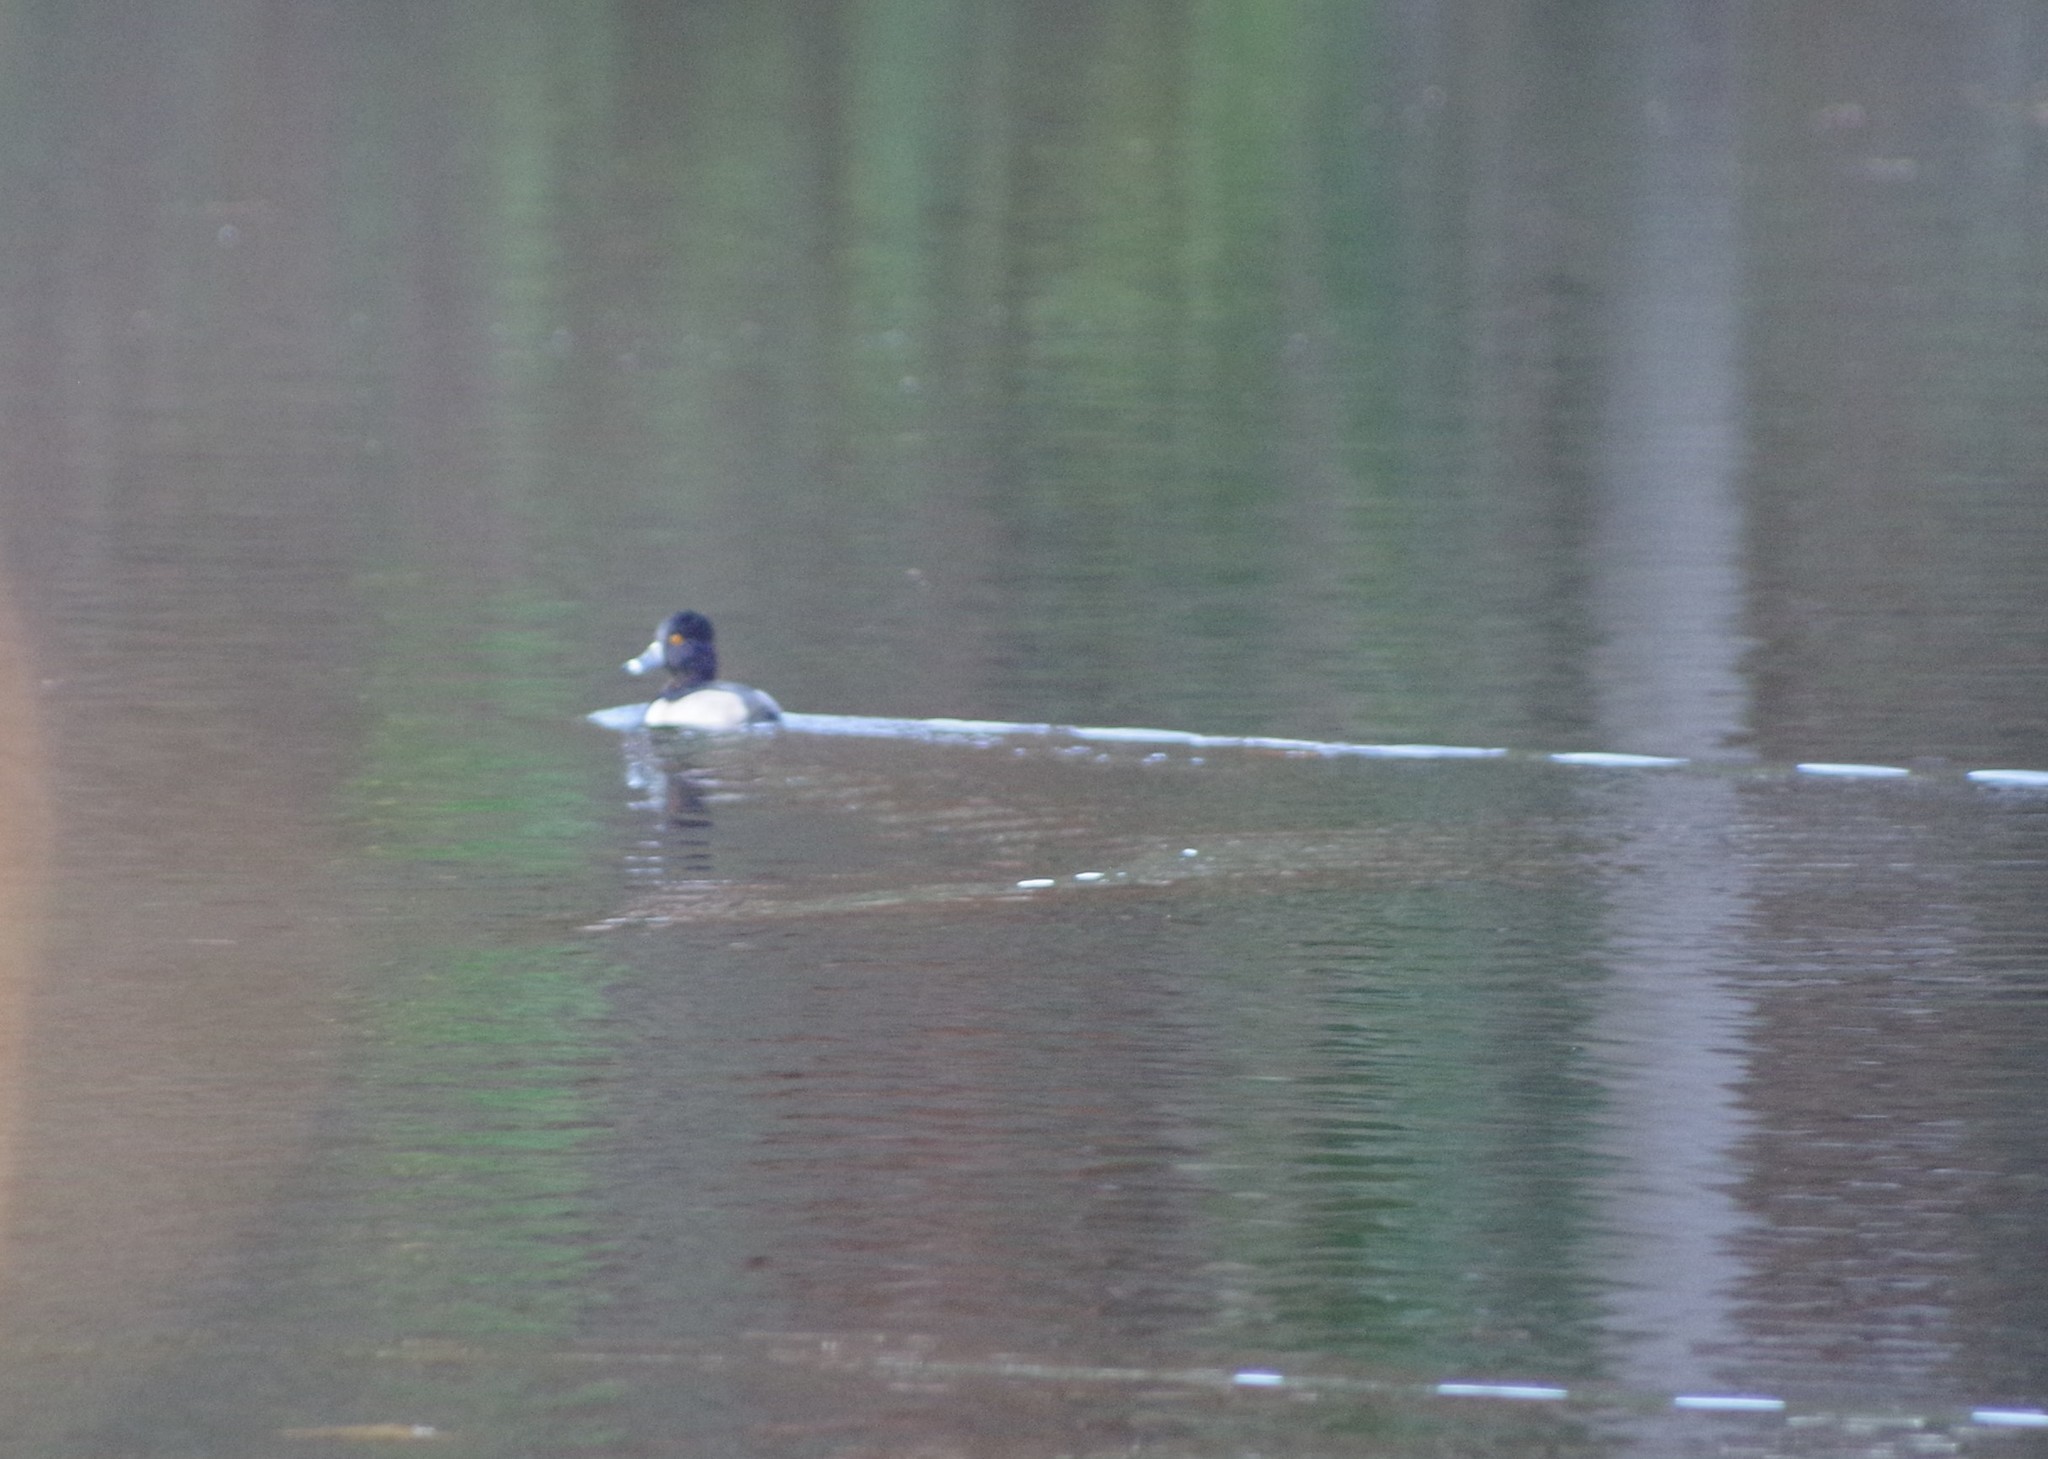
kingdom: Animalia
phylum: Chordata
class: Aves
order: Anseriformes
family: Anatidae
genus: Aythya
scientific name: Aythya collaris
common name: Ring-necked duck
